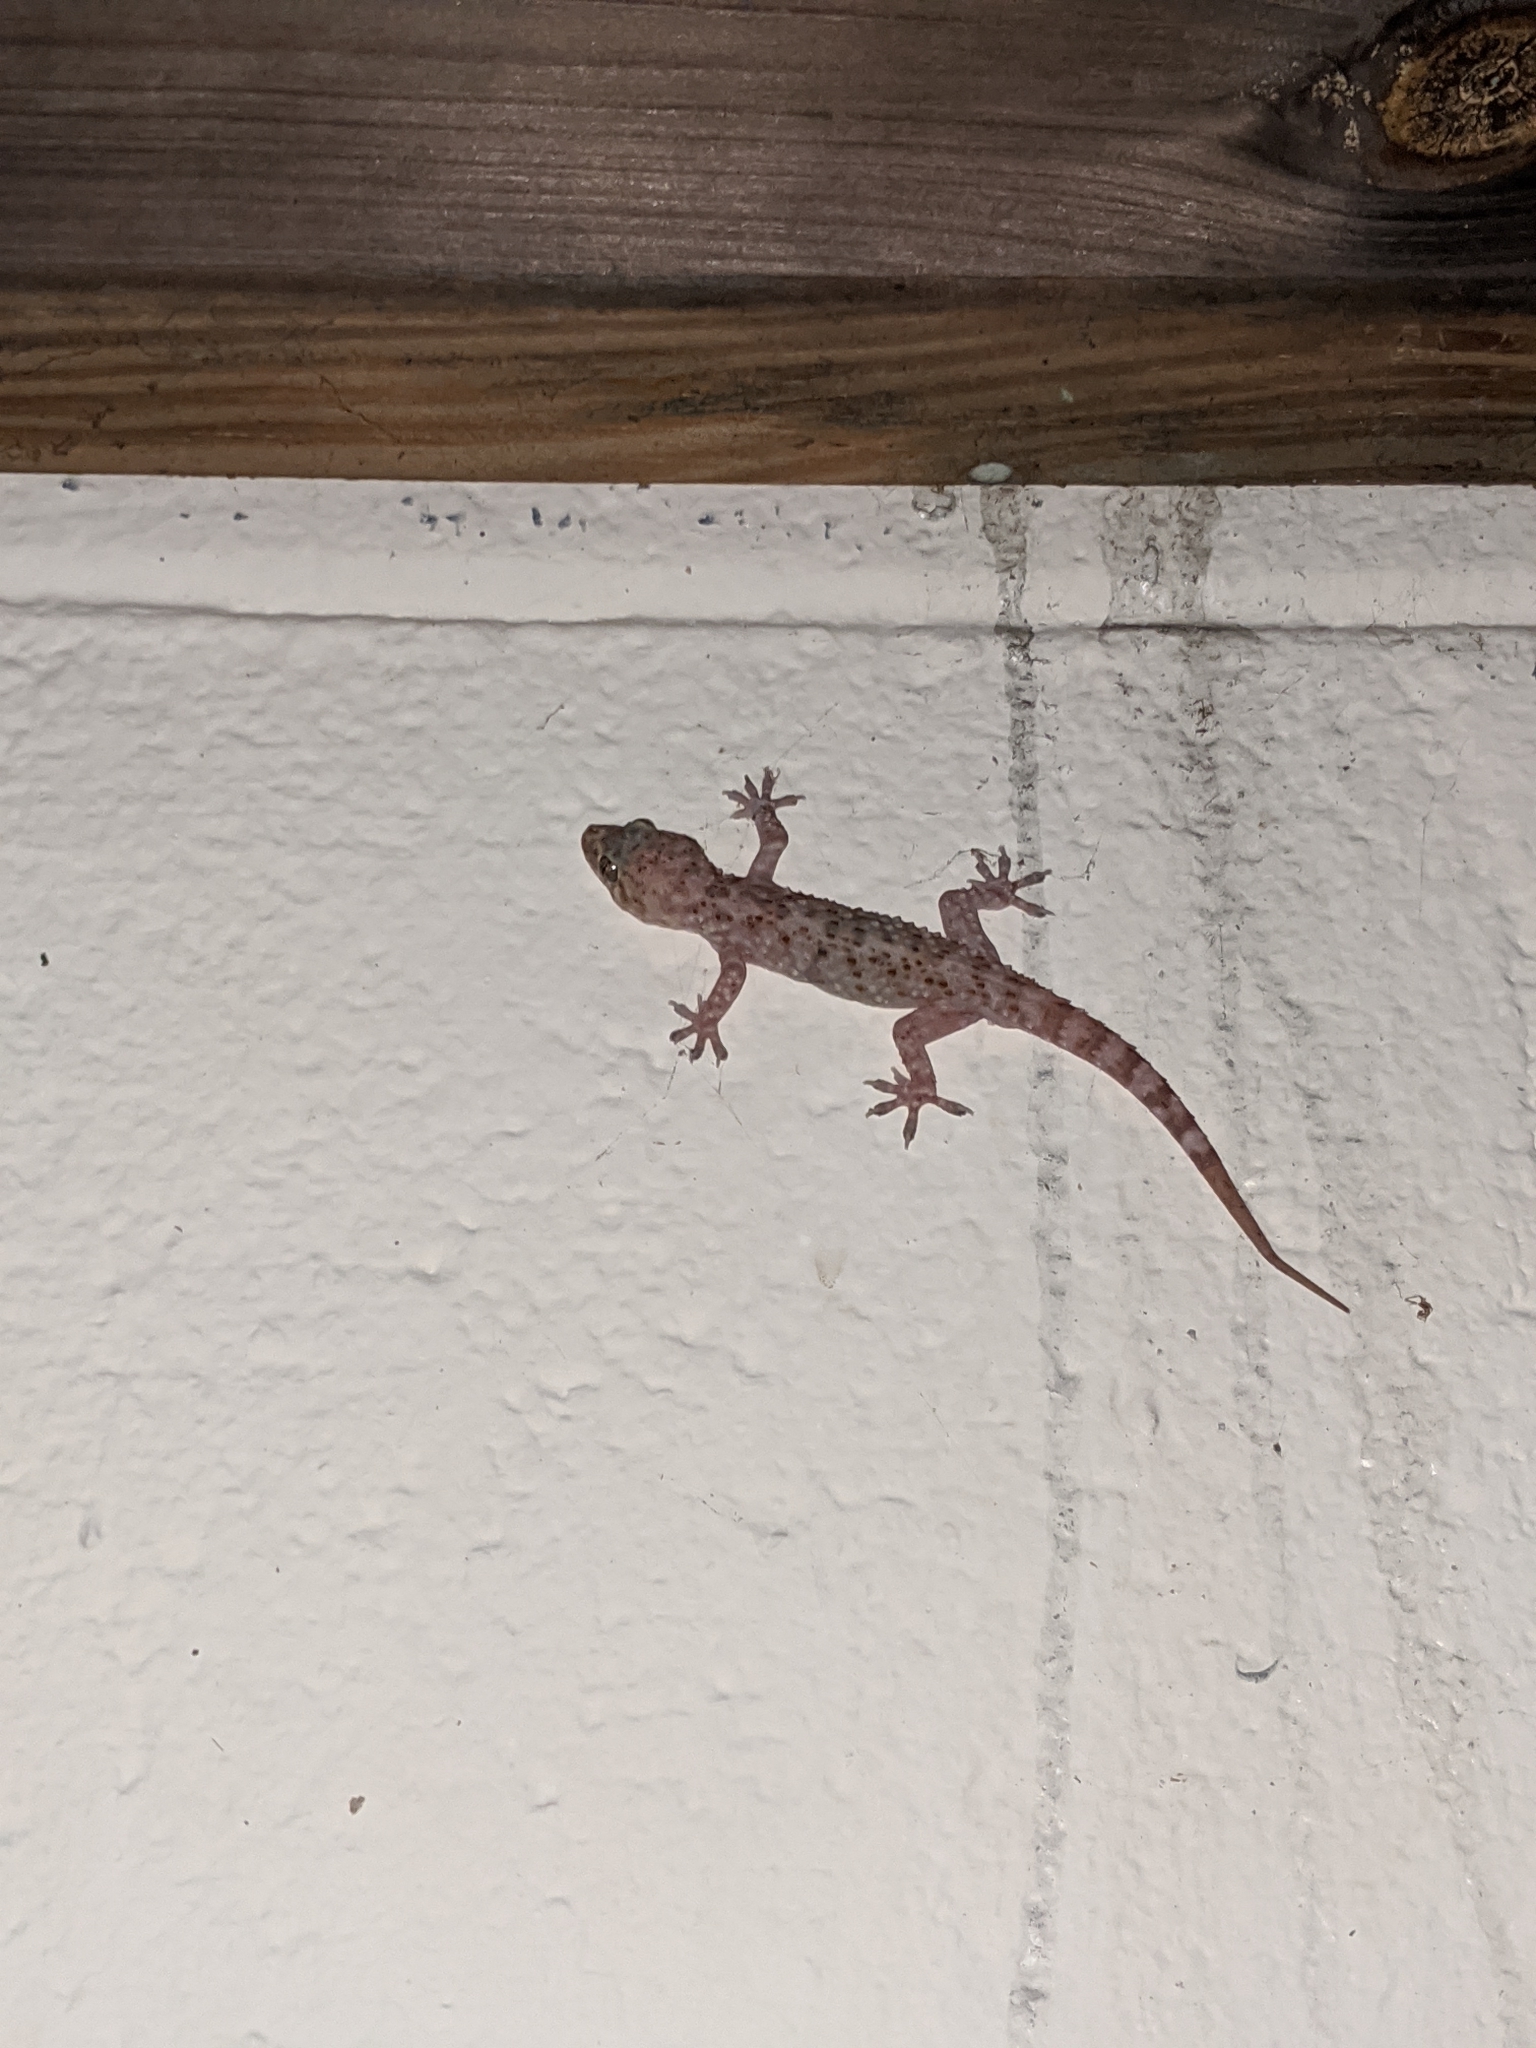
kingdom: Animalia
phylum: Chordata
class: Squamata
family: Gekkonidae
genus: Hemidactylus
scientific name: Hemidactylus turcicus
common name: Turkish gecko
